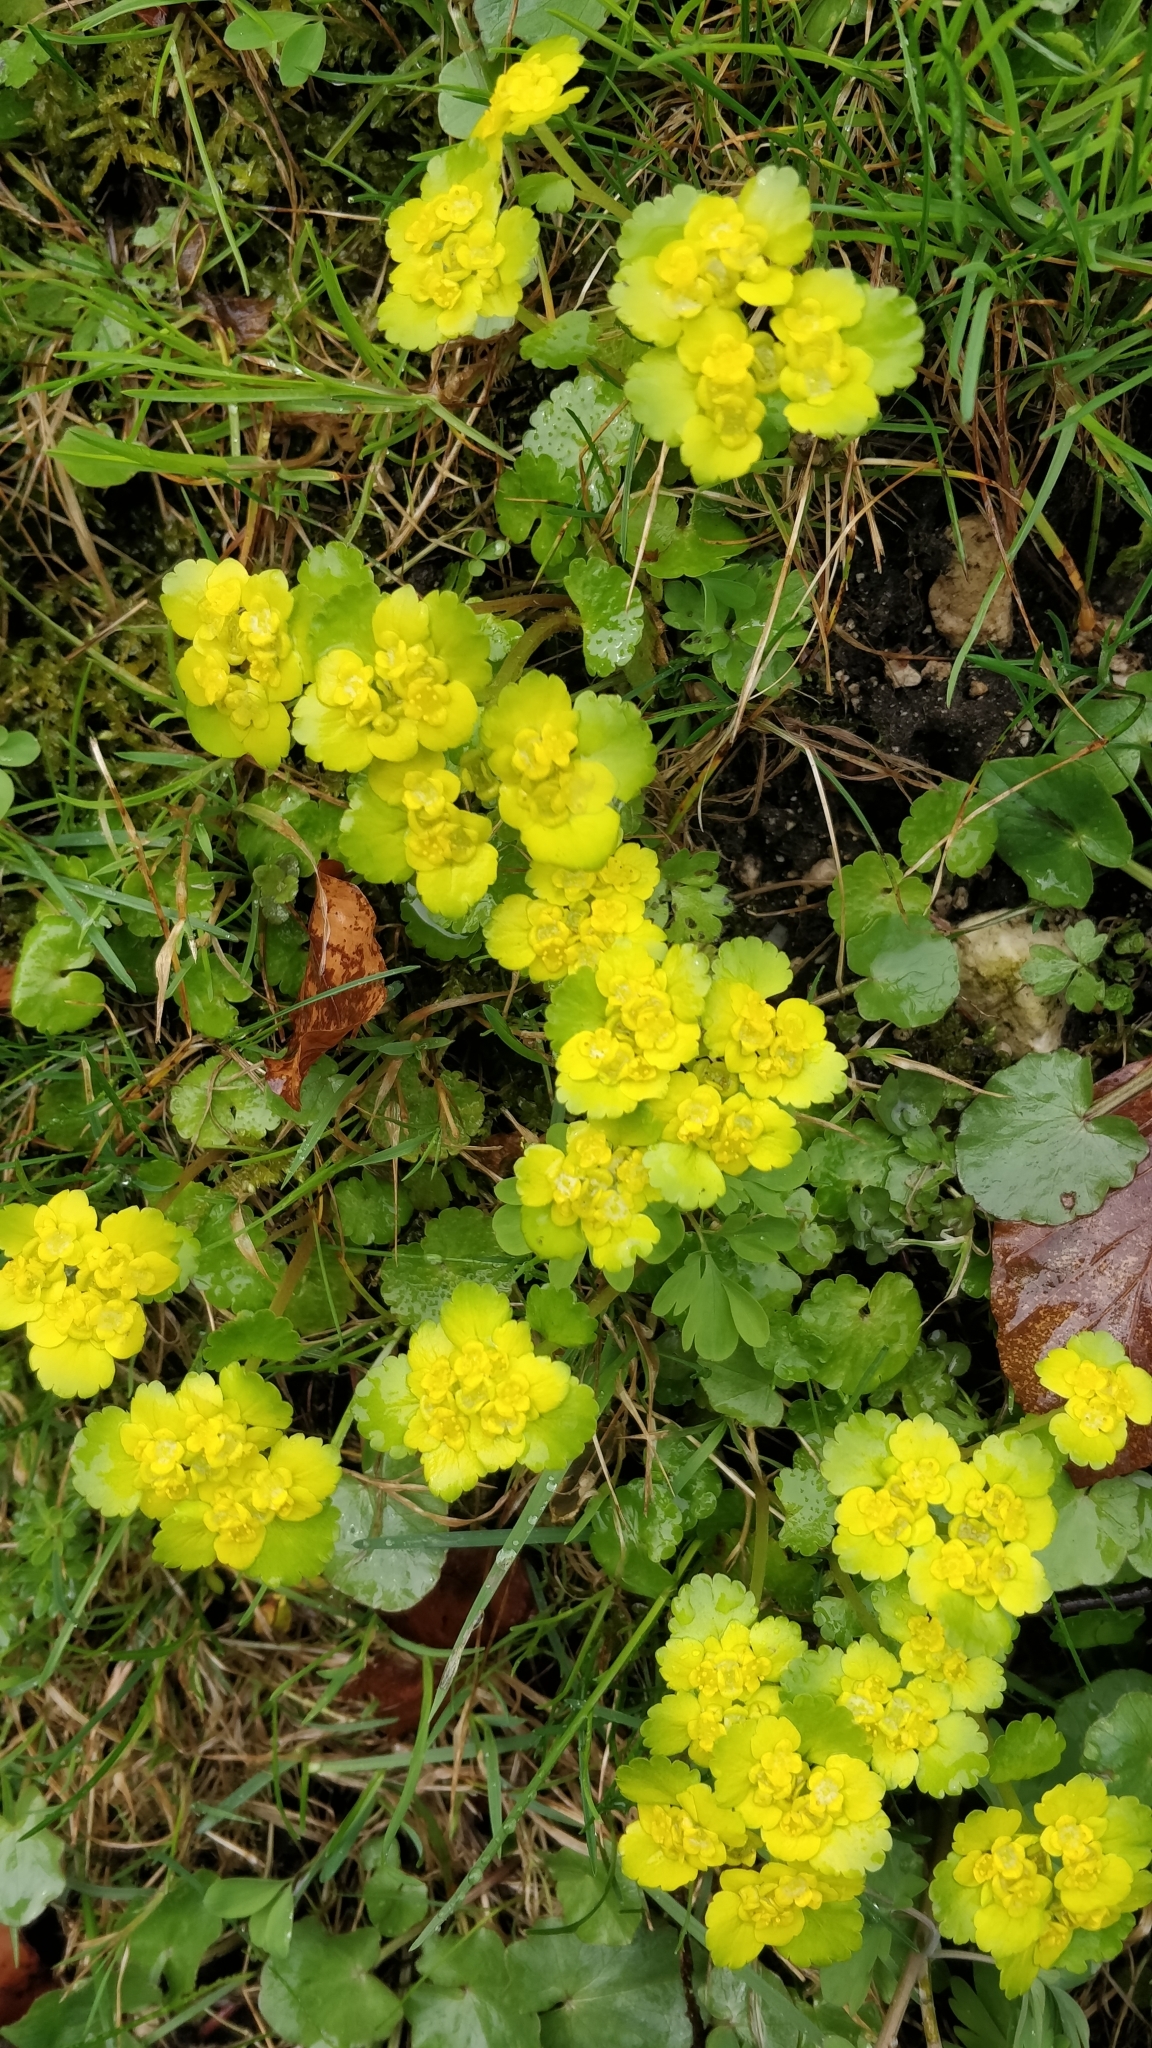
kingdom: Plantae
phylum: Tracheophyta
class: Magnoliopsida
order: Saxifragales
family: Saxifragaceae
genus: Chrysosplenium
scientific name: Chrysosplenium alternifolium
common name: Alternate-leaved golden-saxifrage
